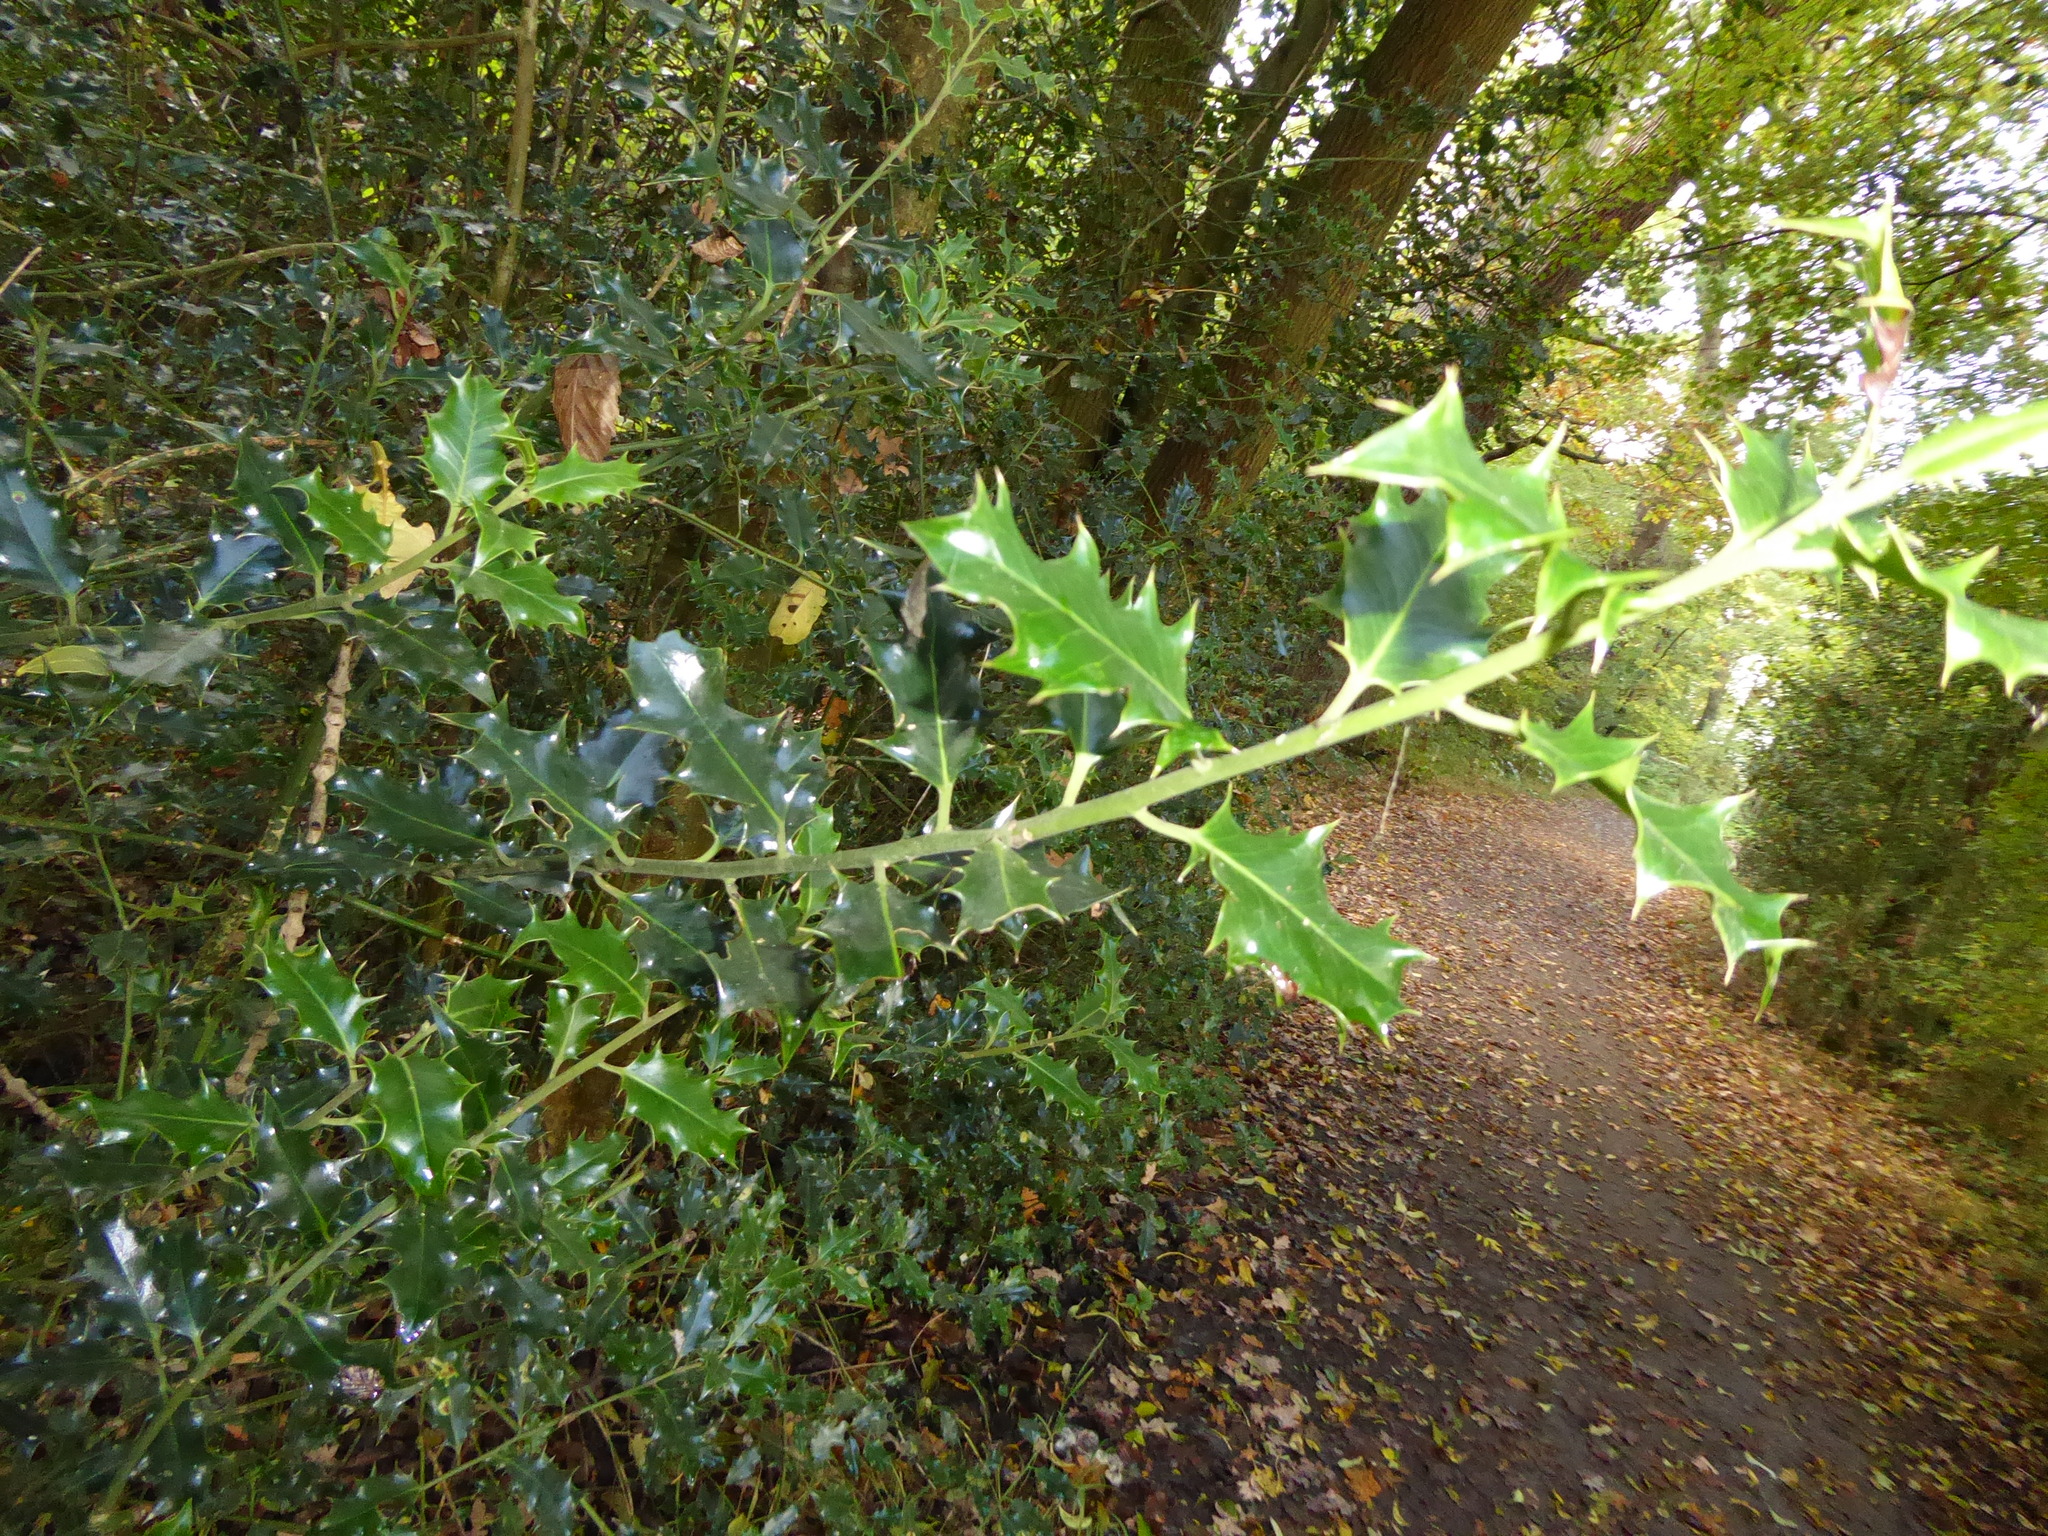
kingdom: Plantae
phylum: Tracheophyta
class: Magnoliopsida
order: Aquifoliales
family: Aquifoliaceae
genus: Ilex
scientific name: Ilex aquifolium
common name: English holly
